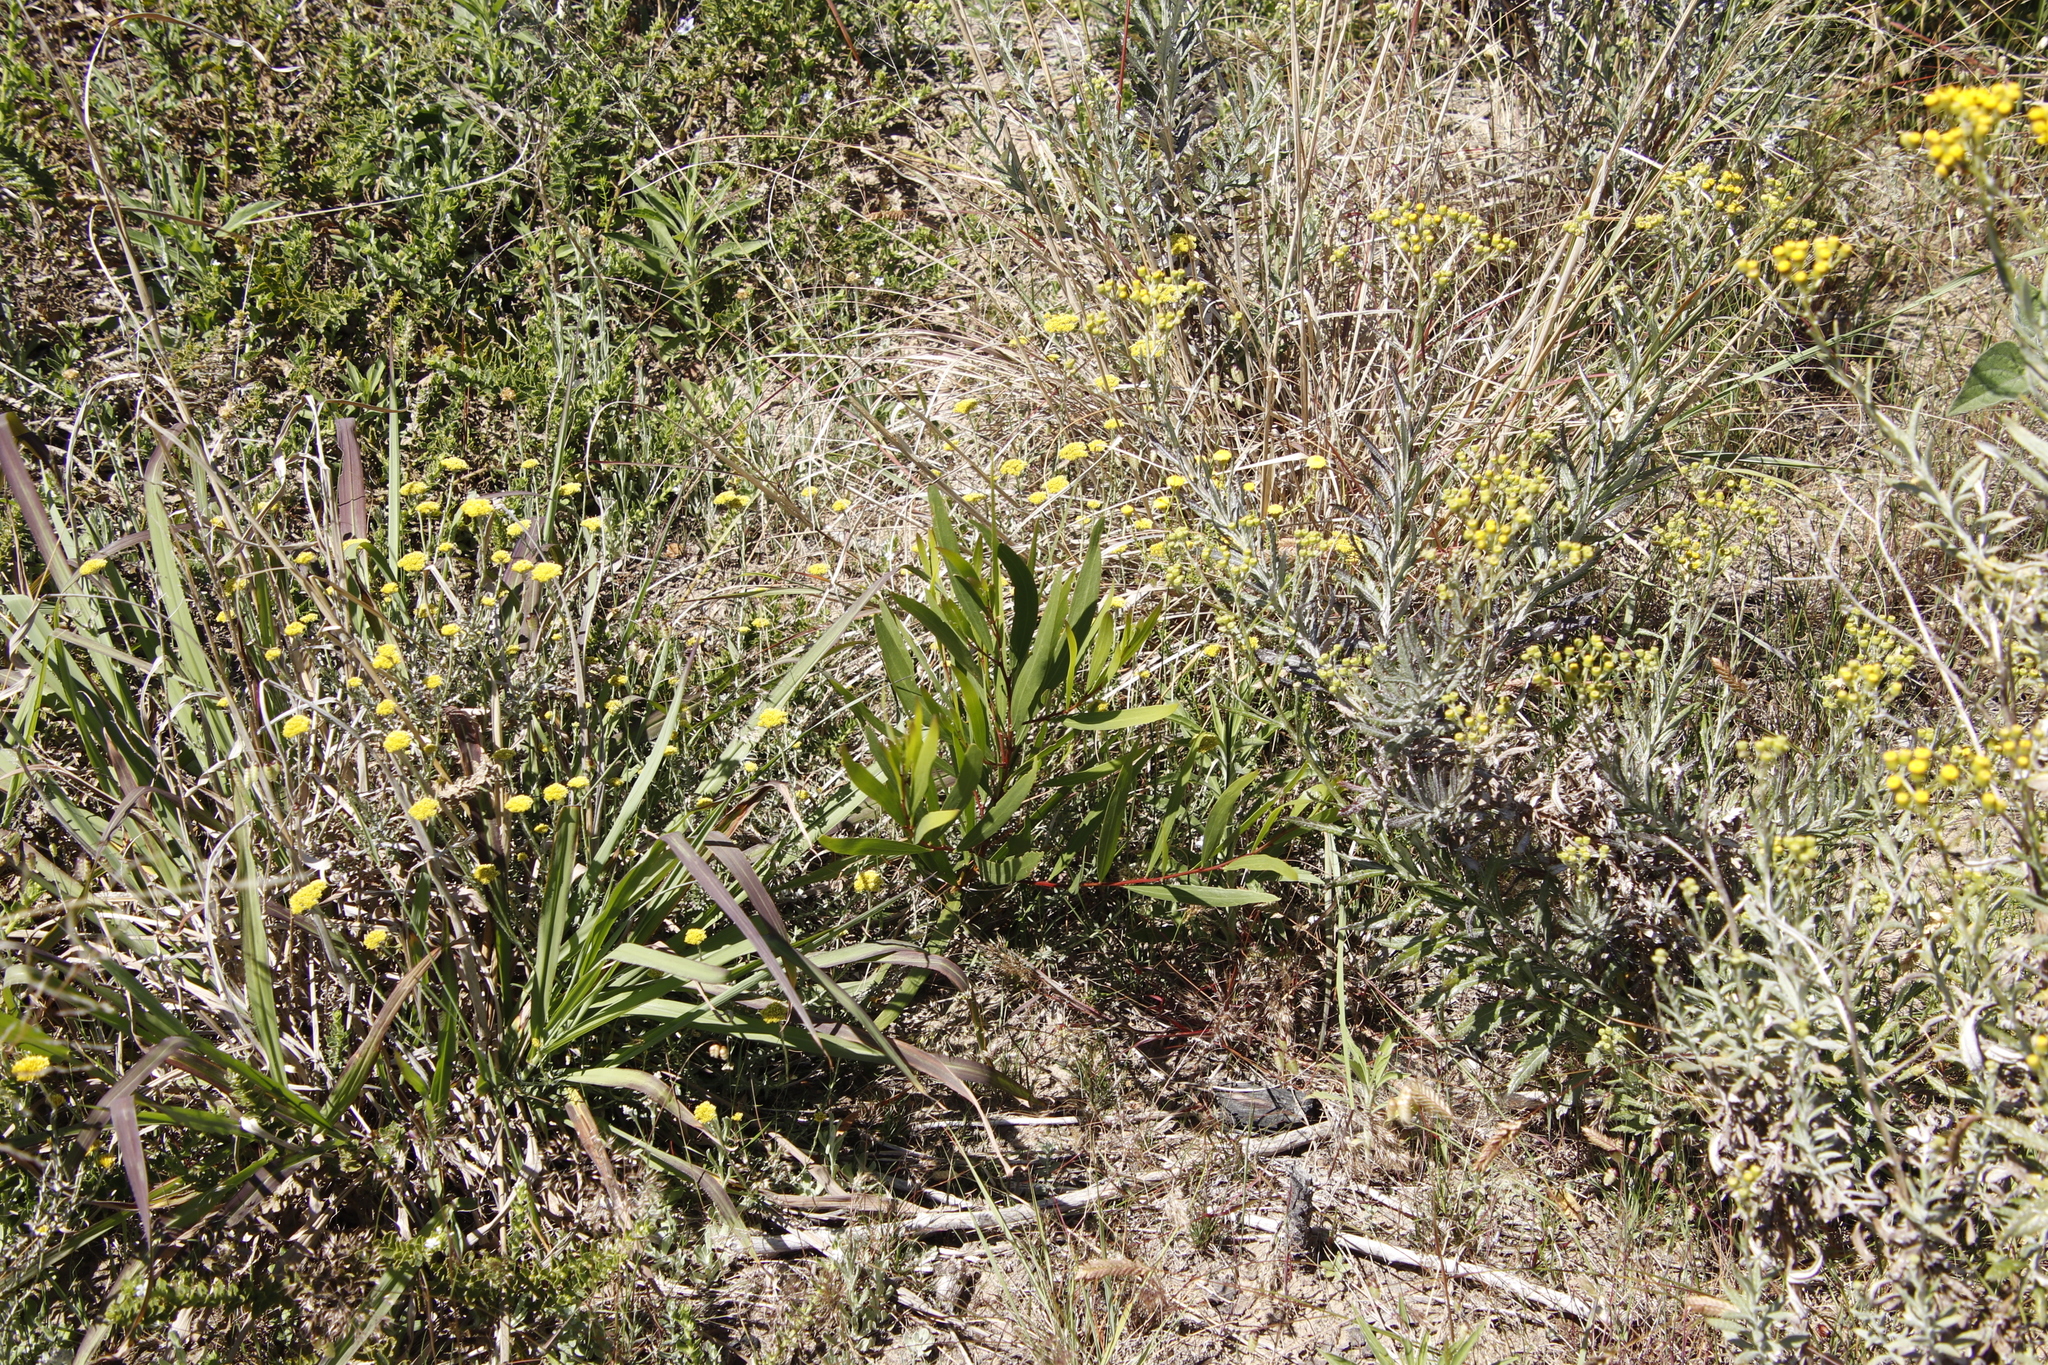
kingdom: Plantae
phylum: Tracheophyta
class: Magnoliopsida
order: Fabales
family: Fabaceae
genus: Acacia
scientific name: Acacia saligna
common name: Orange wattle
